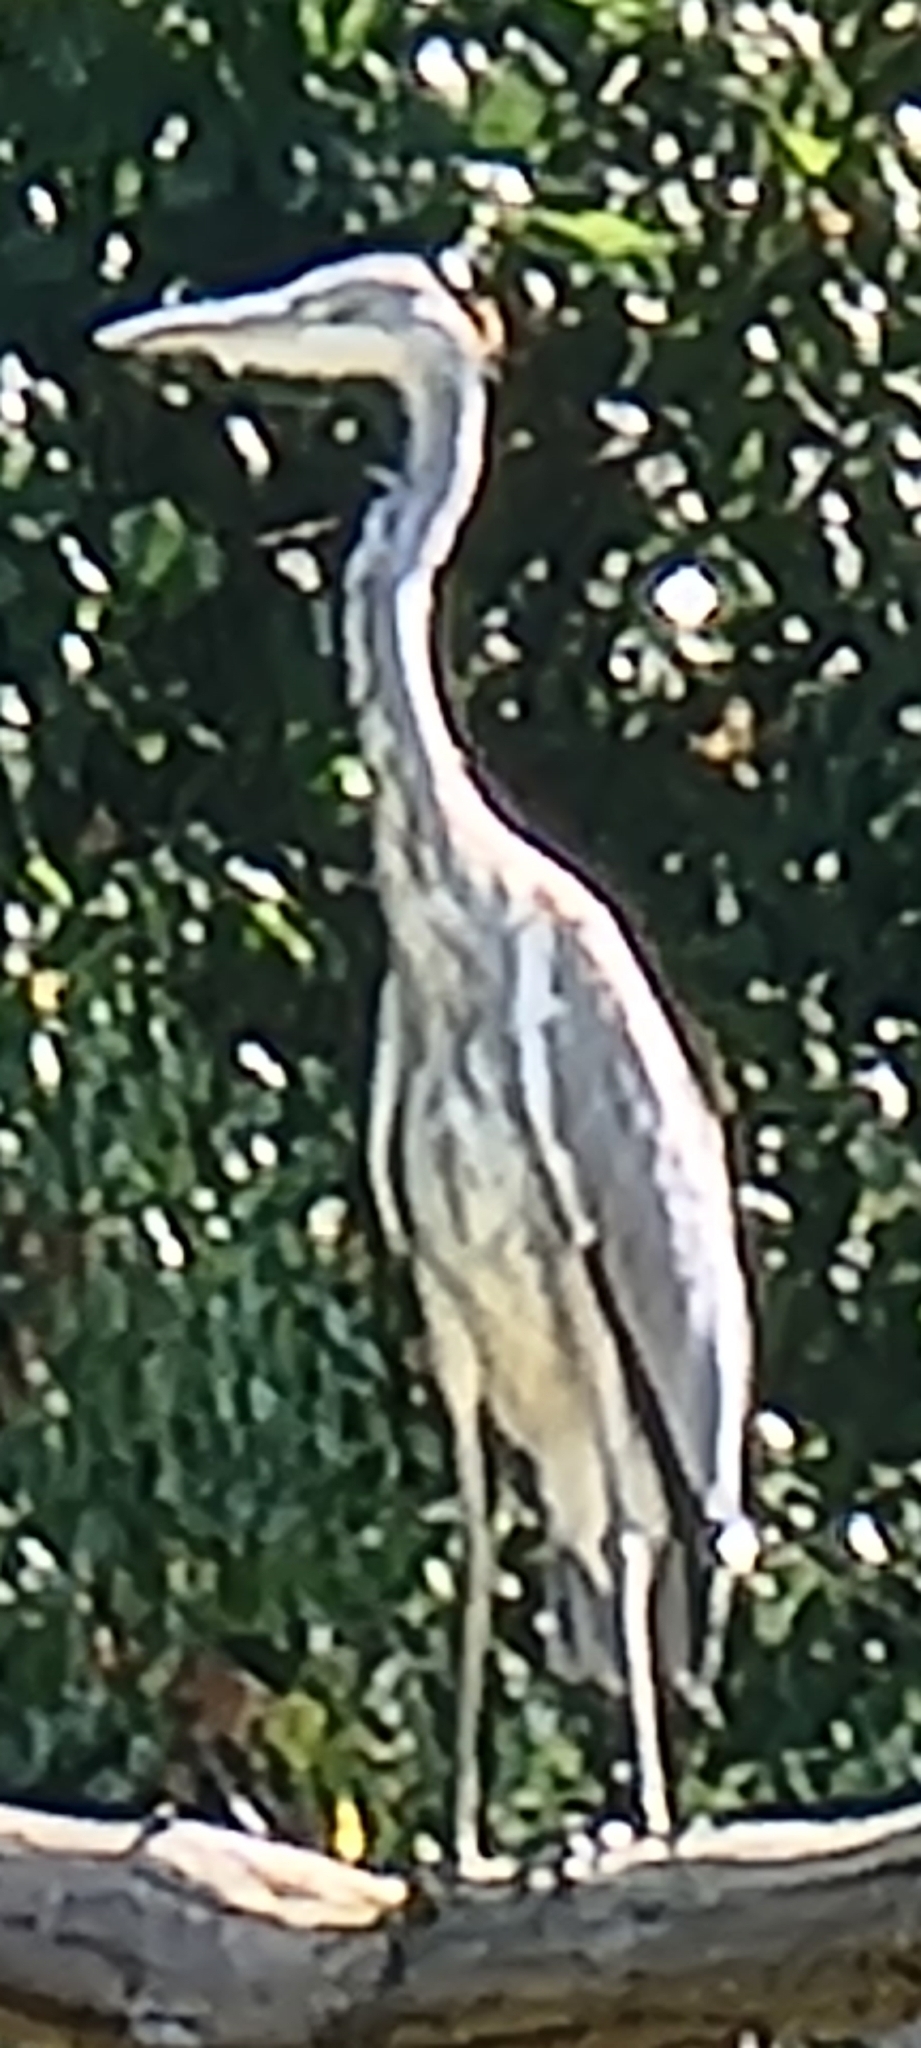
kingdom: Animalia
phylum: Chordata
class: Aves
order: Pelecaniformes
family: Ardeidae
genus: Ardea
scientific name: Ardea cinerea
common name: Grey heron
